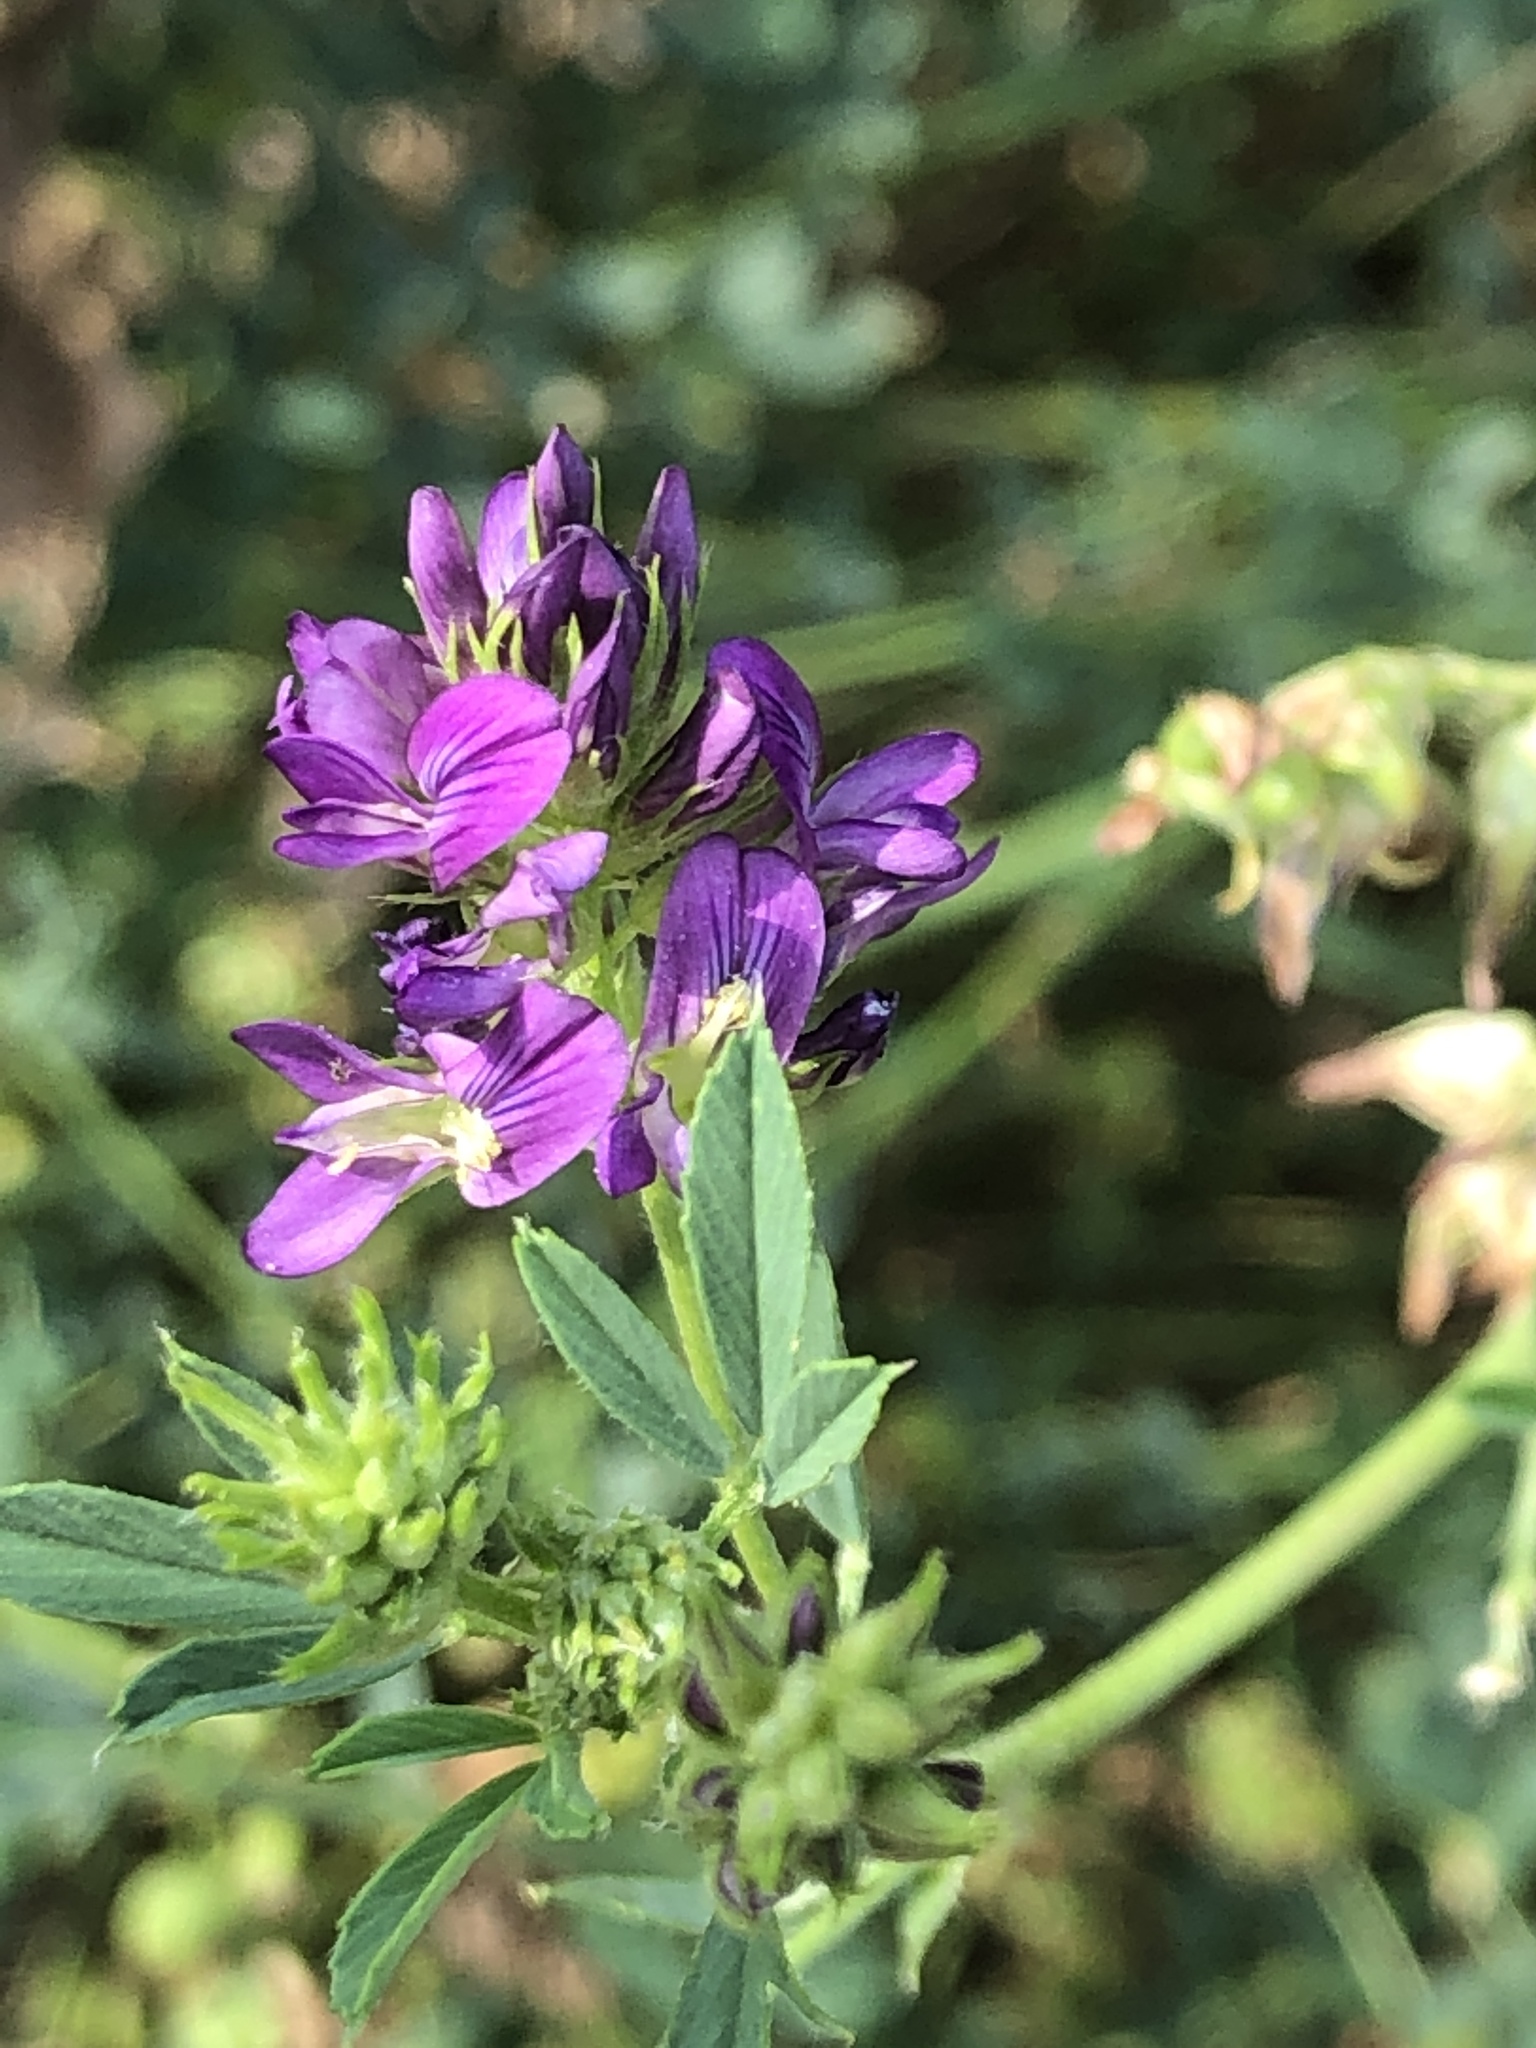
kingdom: Plantae
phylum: Tracheophyta
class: Magnoliopsida
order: Fabales
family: Fabaceae
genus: Medicago
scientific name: Medicago sativa
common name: Alfalfa
